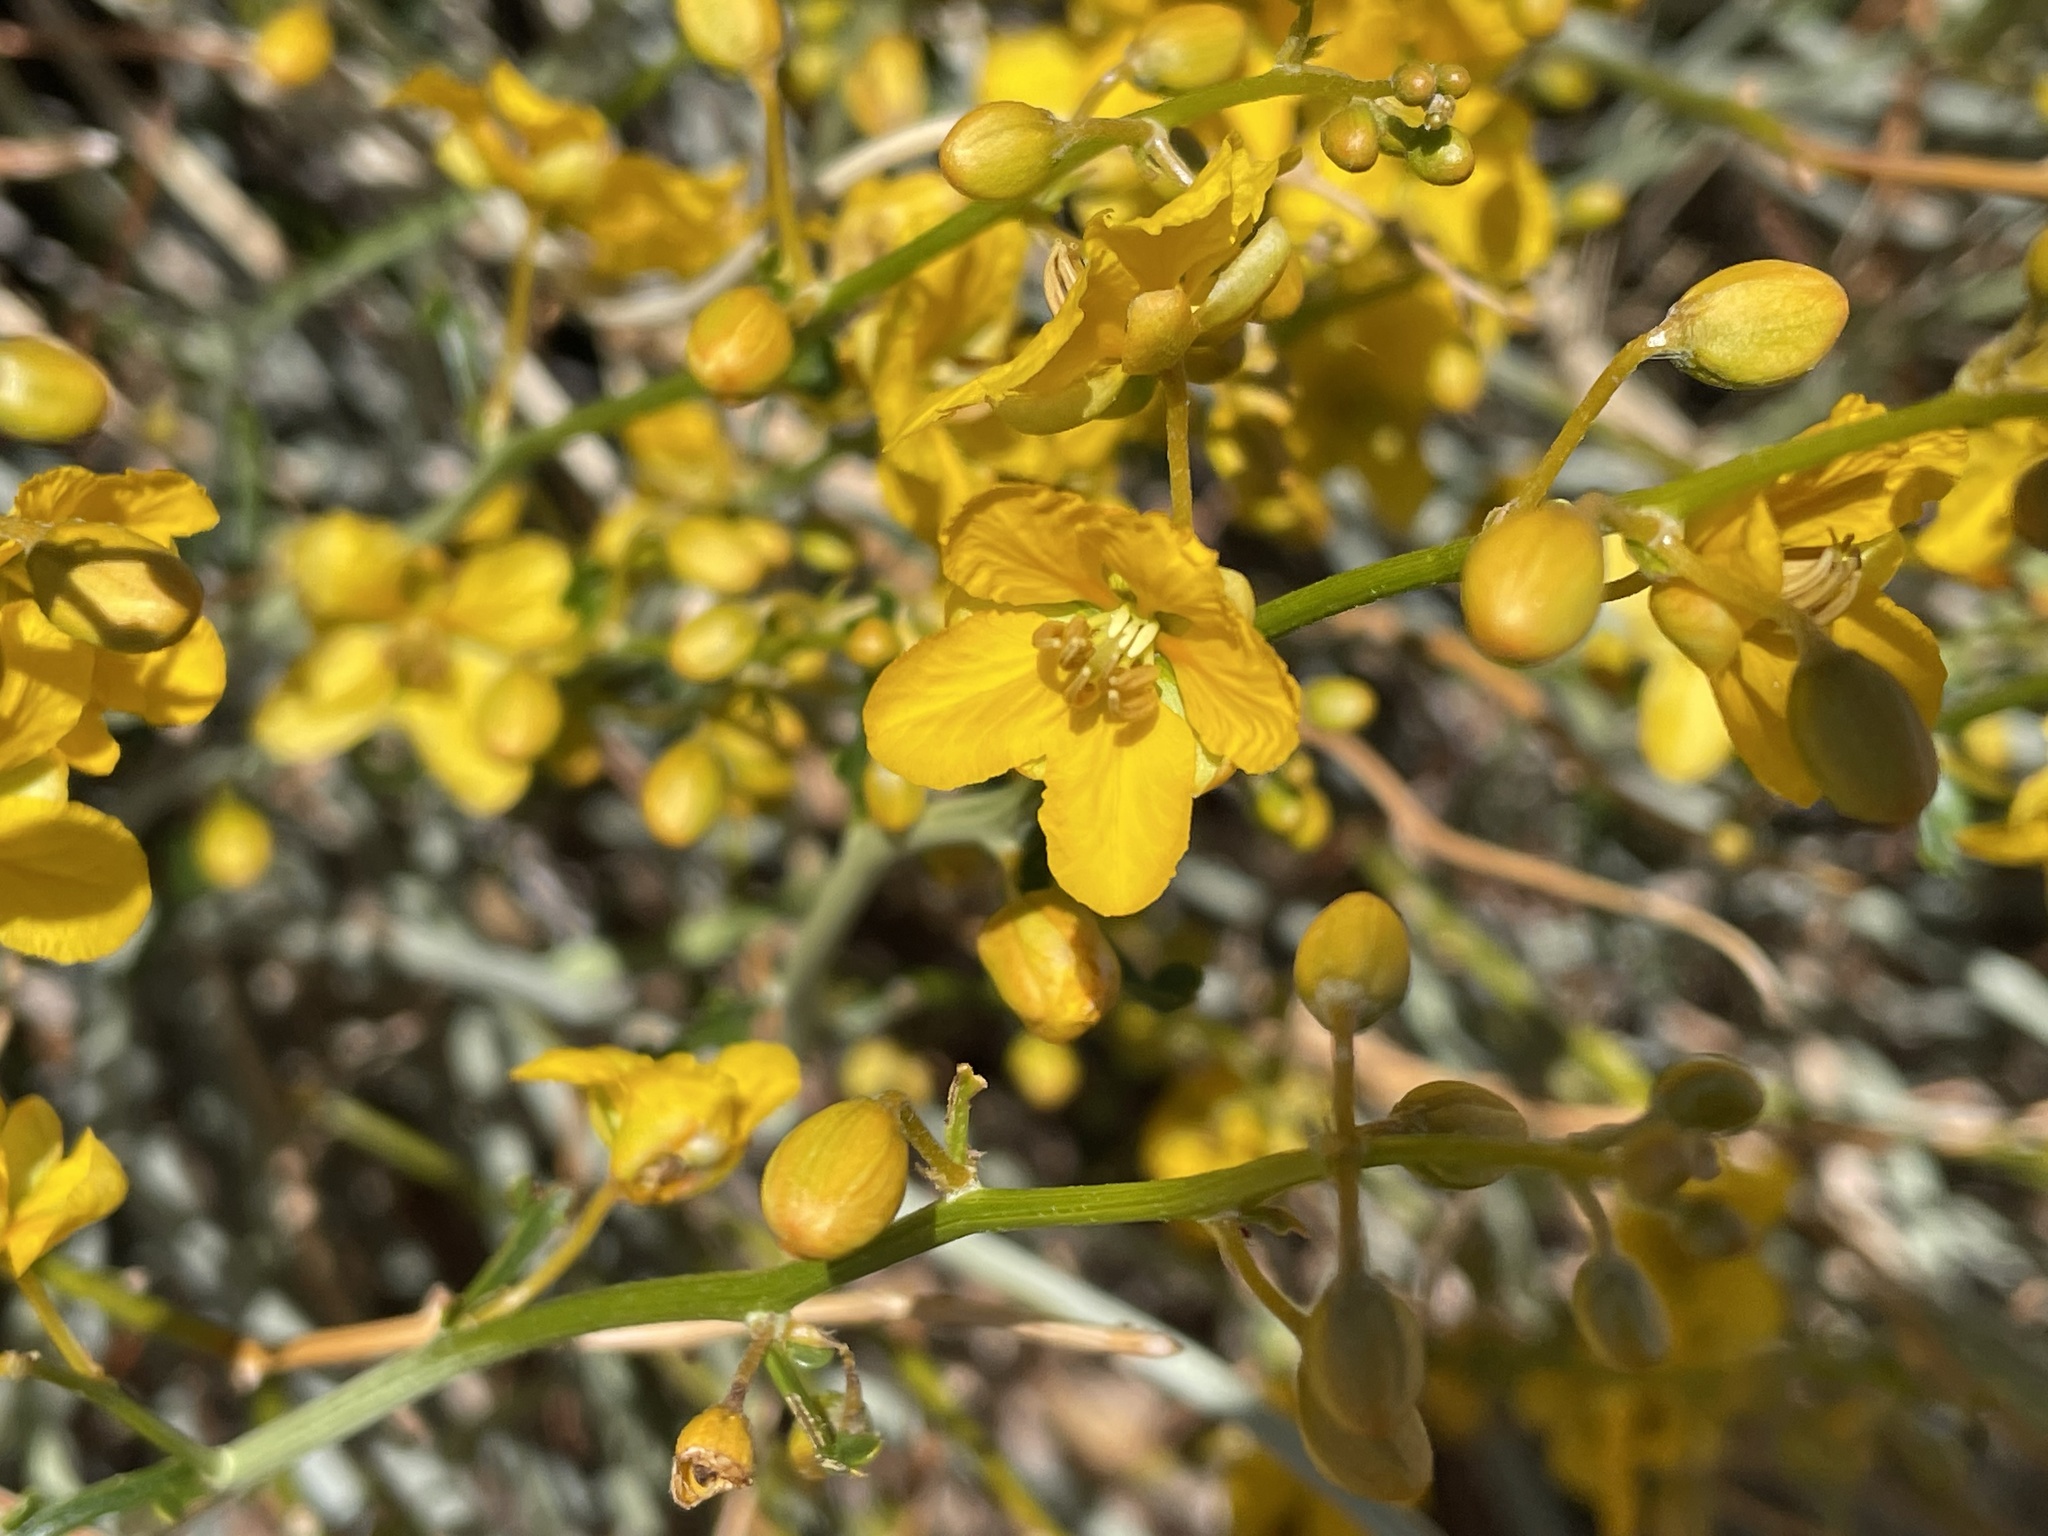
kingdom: Plantae
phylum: Tracheophyta
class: Magnoliopsida
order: Fabales
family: Fabaceae
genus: Senna
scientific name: Senna armata
